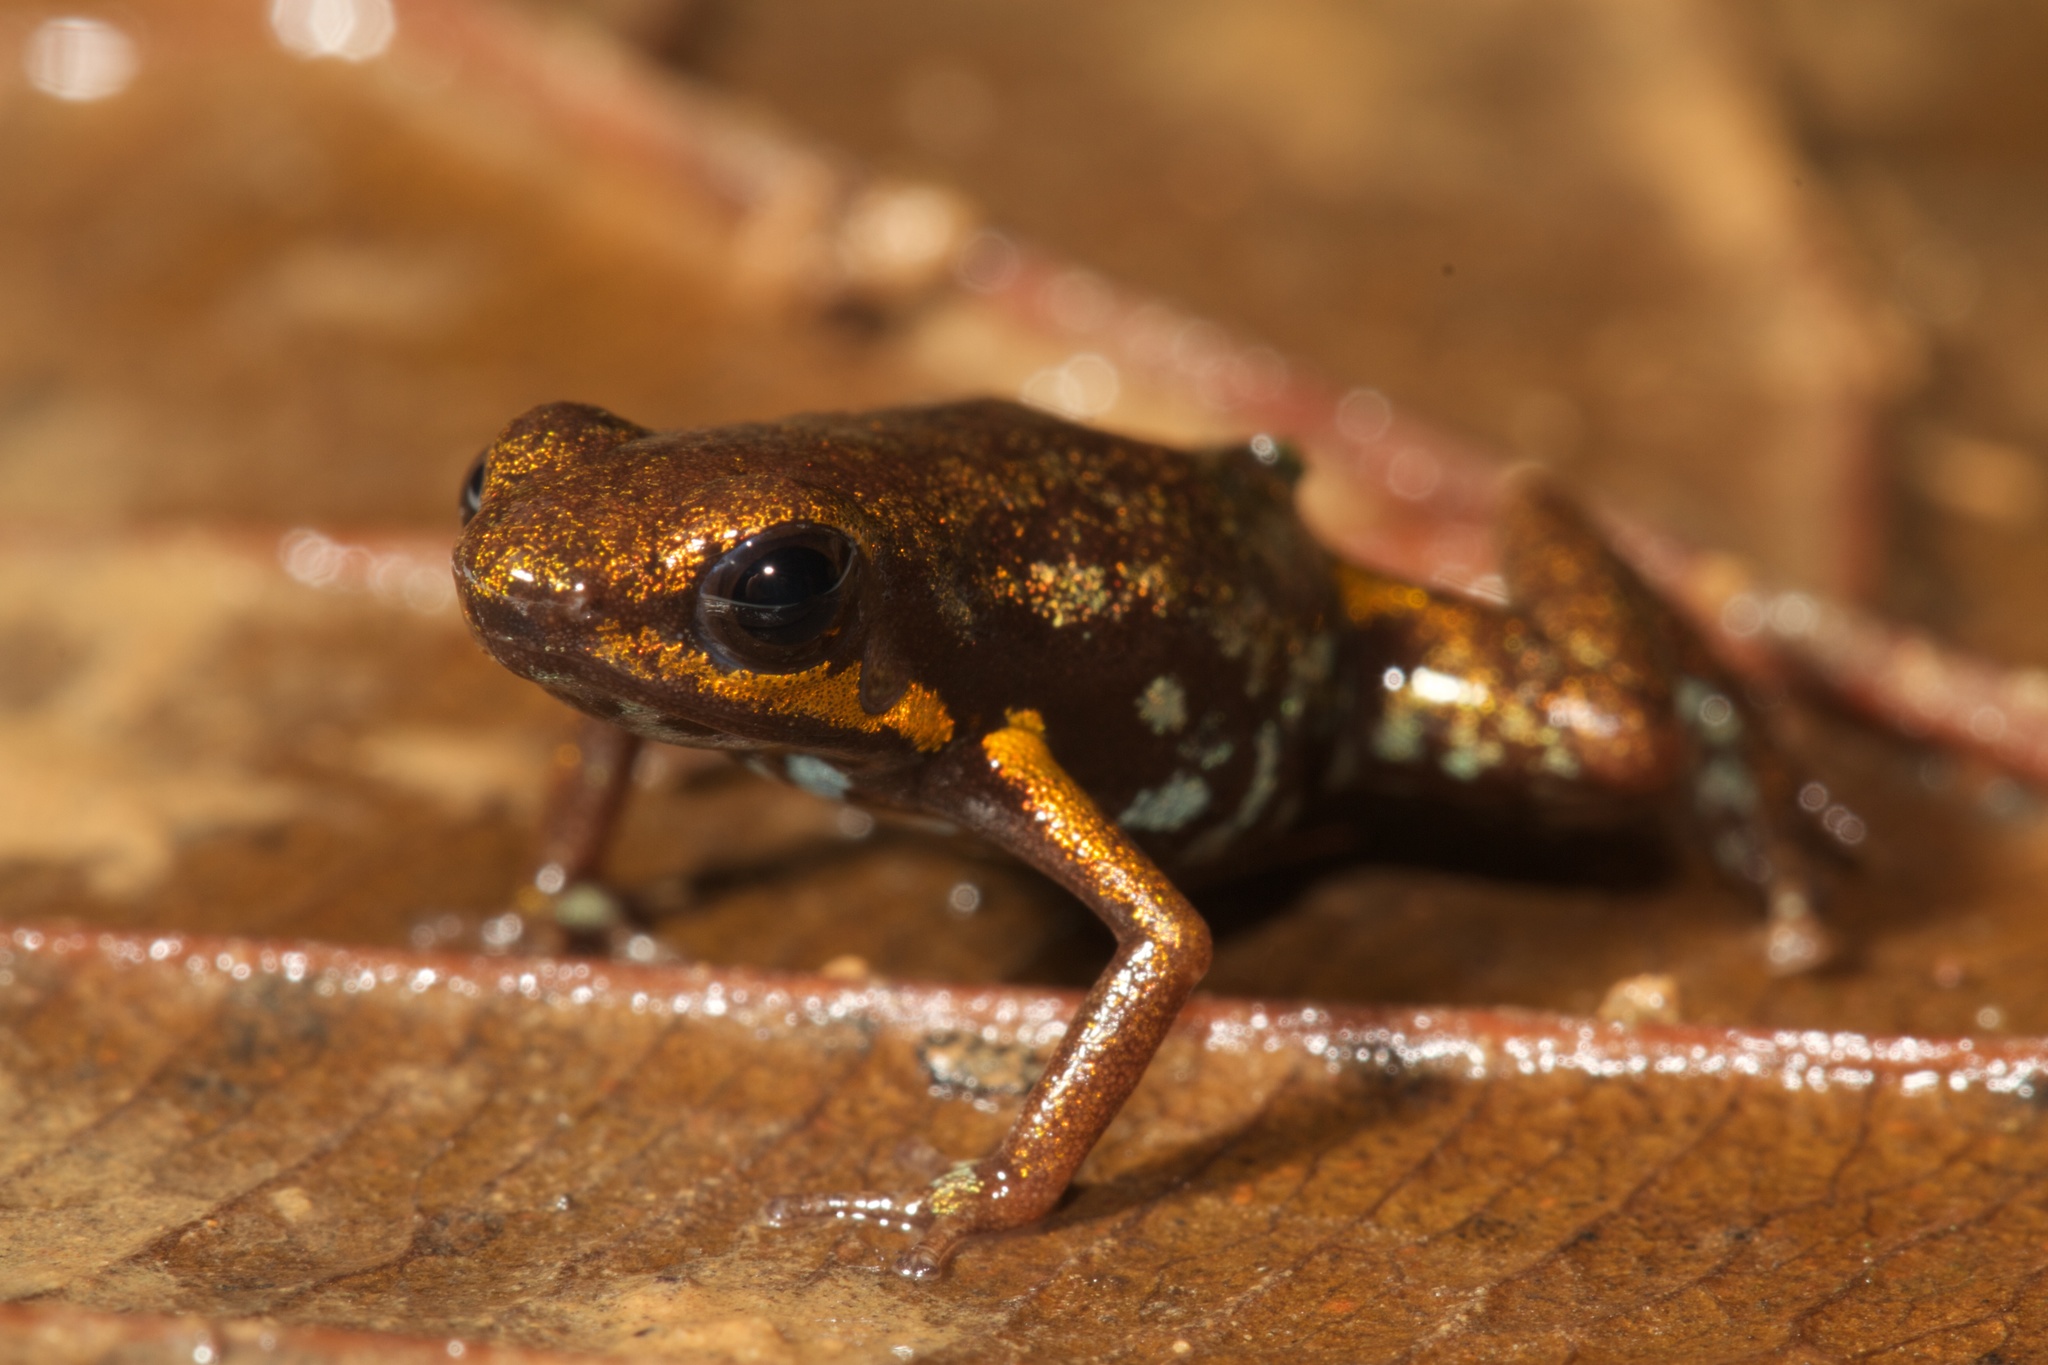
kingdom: Animalia
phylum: Chordata
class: Amphibia
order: Anura
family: Dendrobatidae
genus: Andinobates
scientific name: Andinobates minutus
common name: Blue-bellied poison frog
